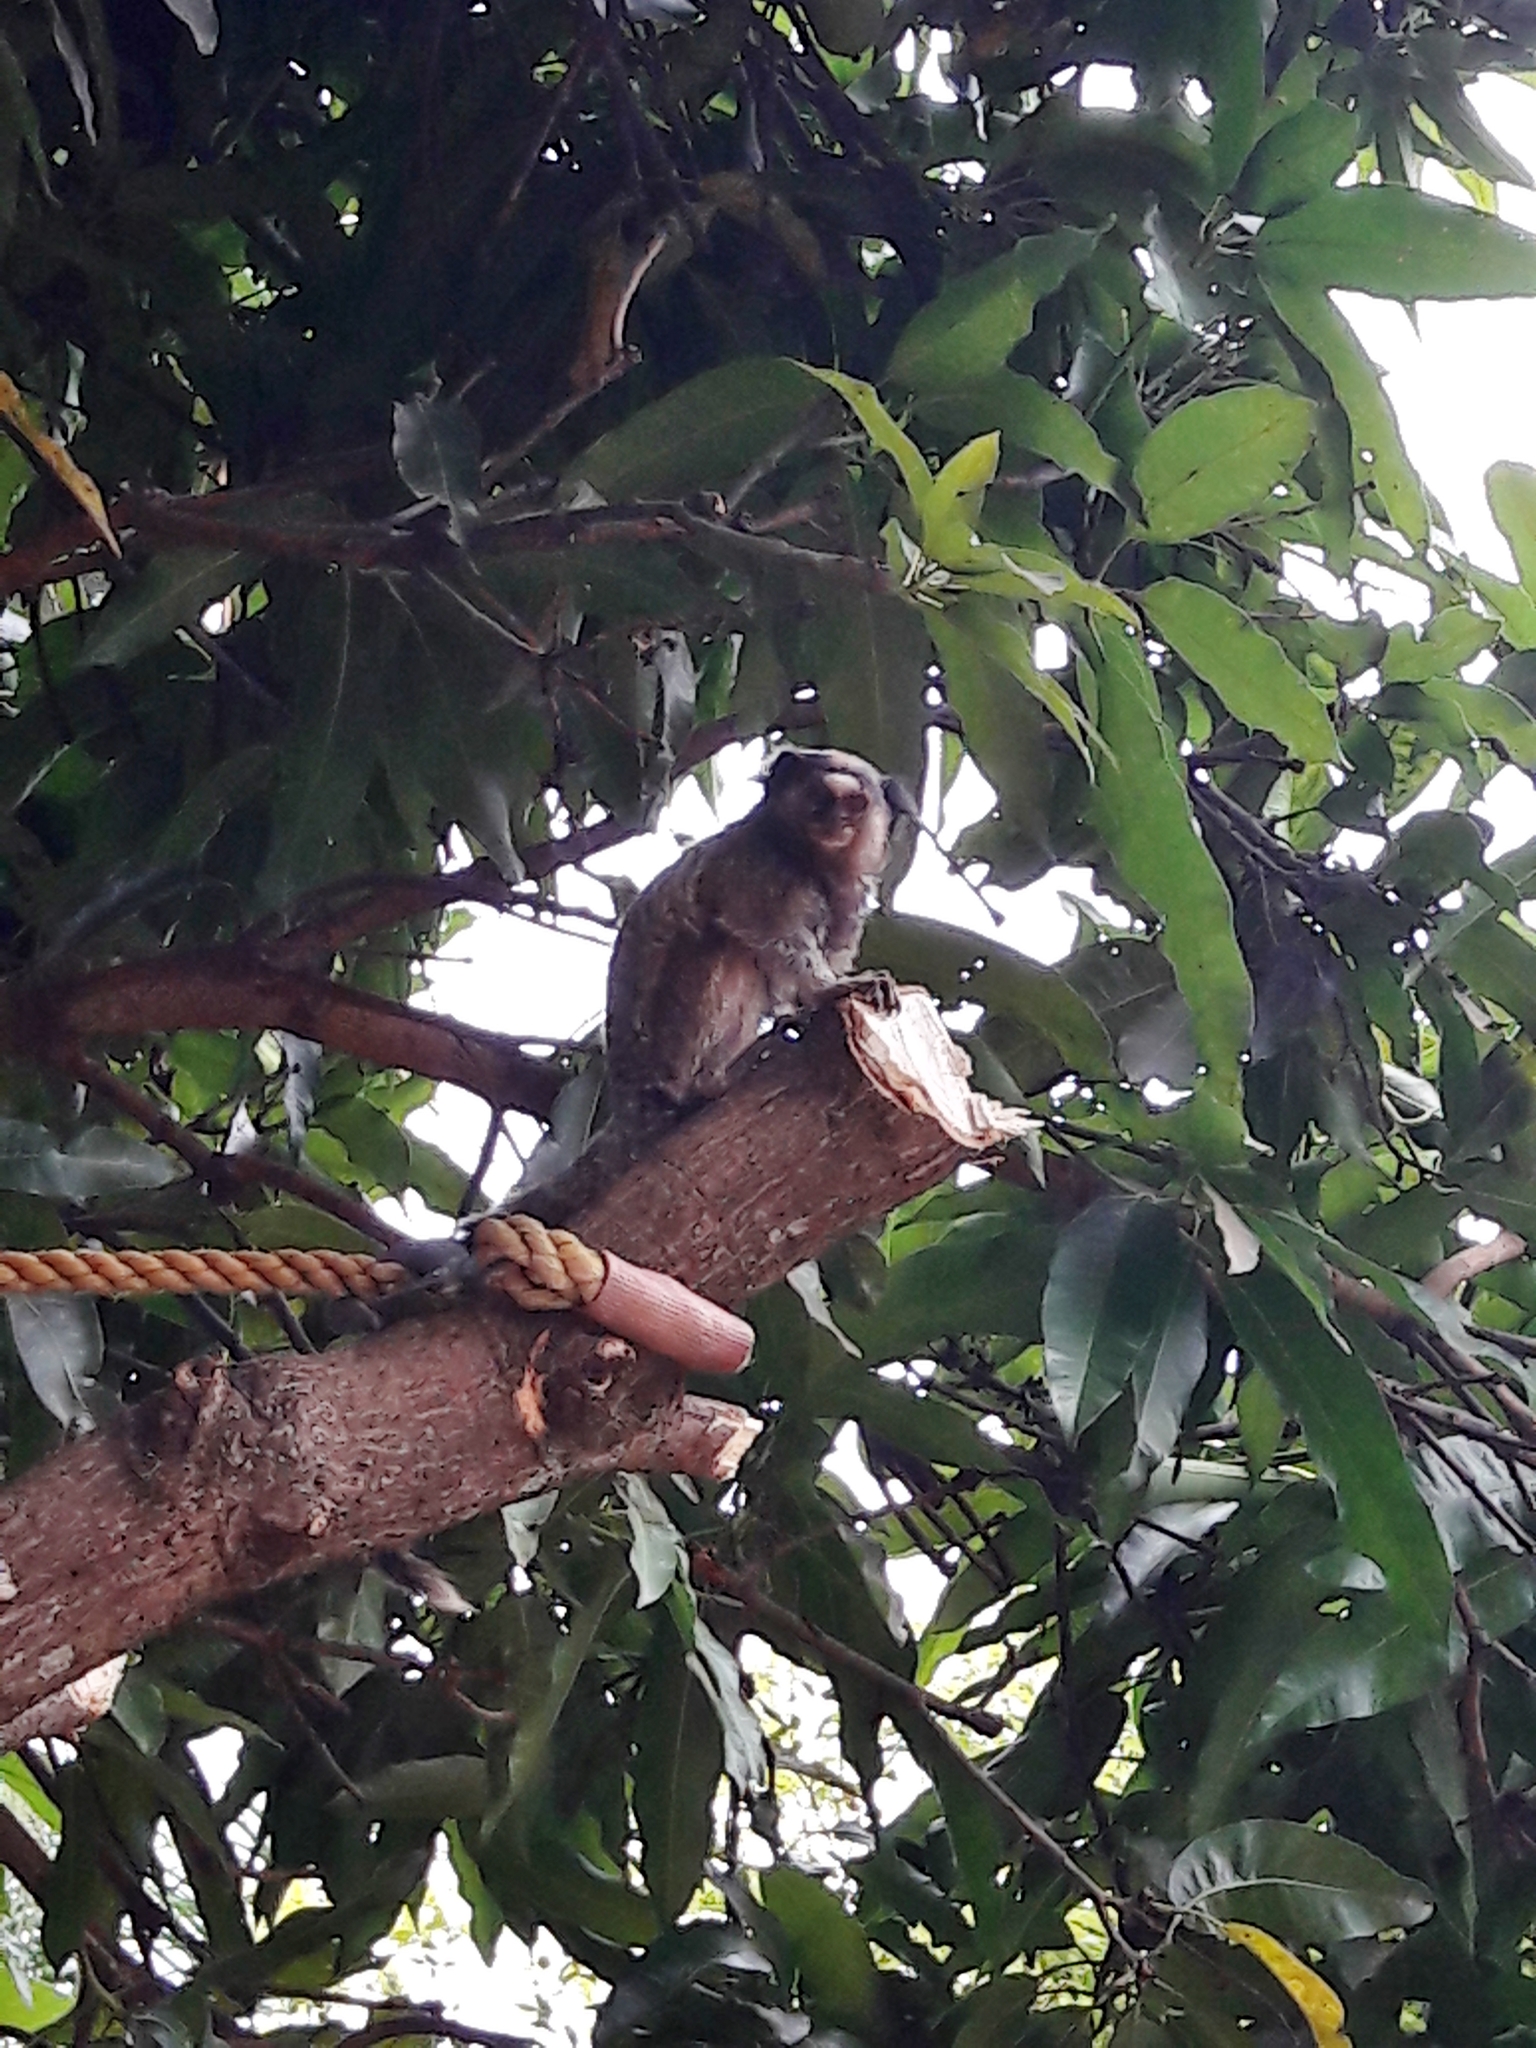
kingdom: Animalia
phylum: Chordata
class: Mammalia
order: Primates
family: Callitrichidae
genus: Callithrix
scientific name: Callithrix penicillata
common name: Black-tufted marmoset
